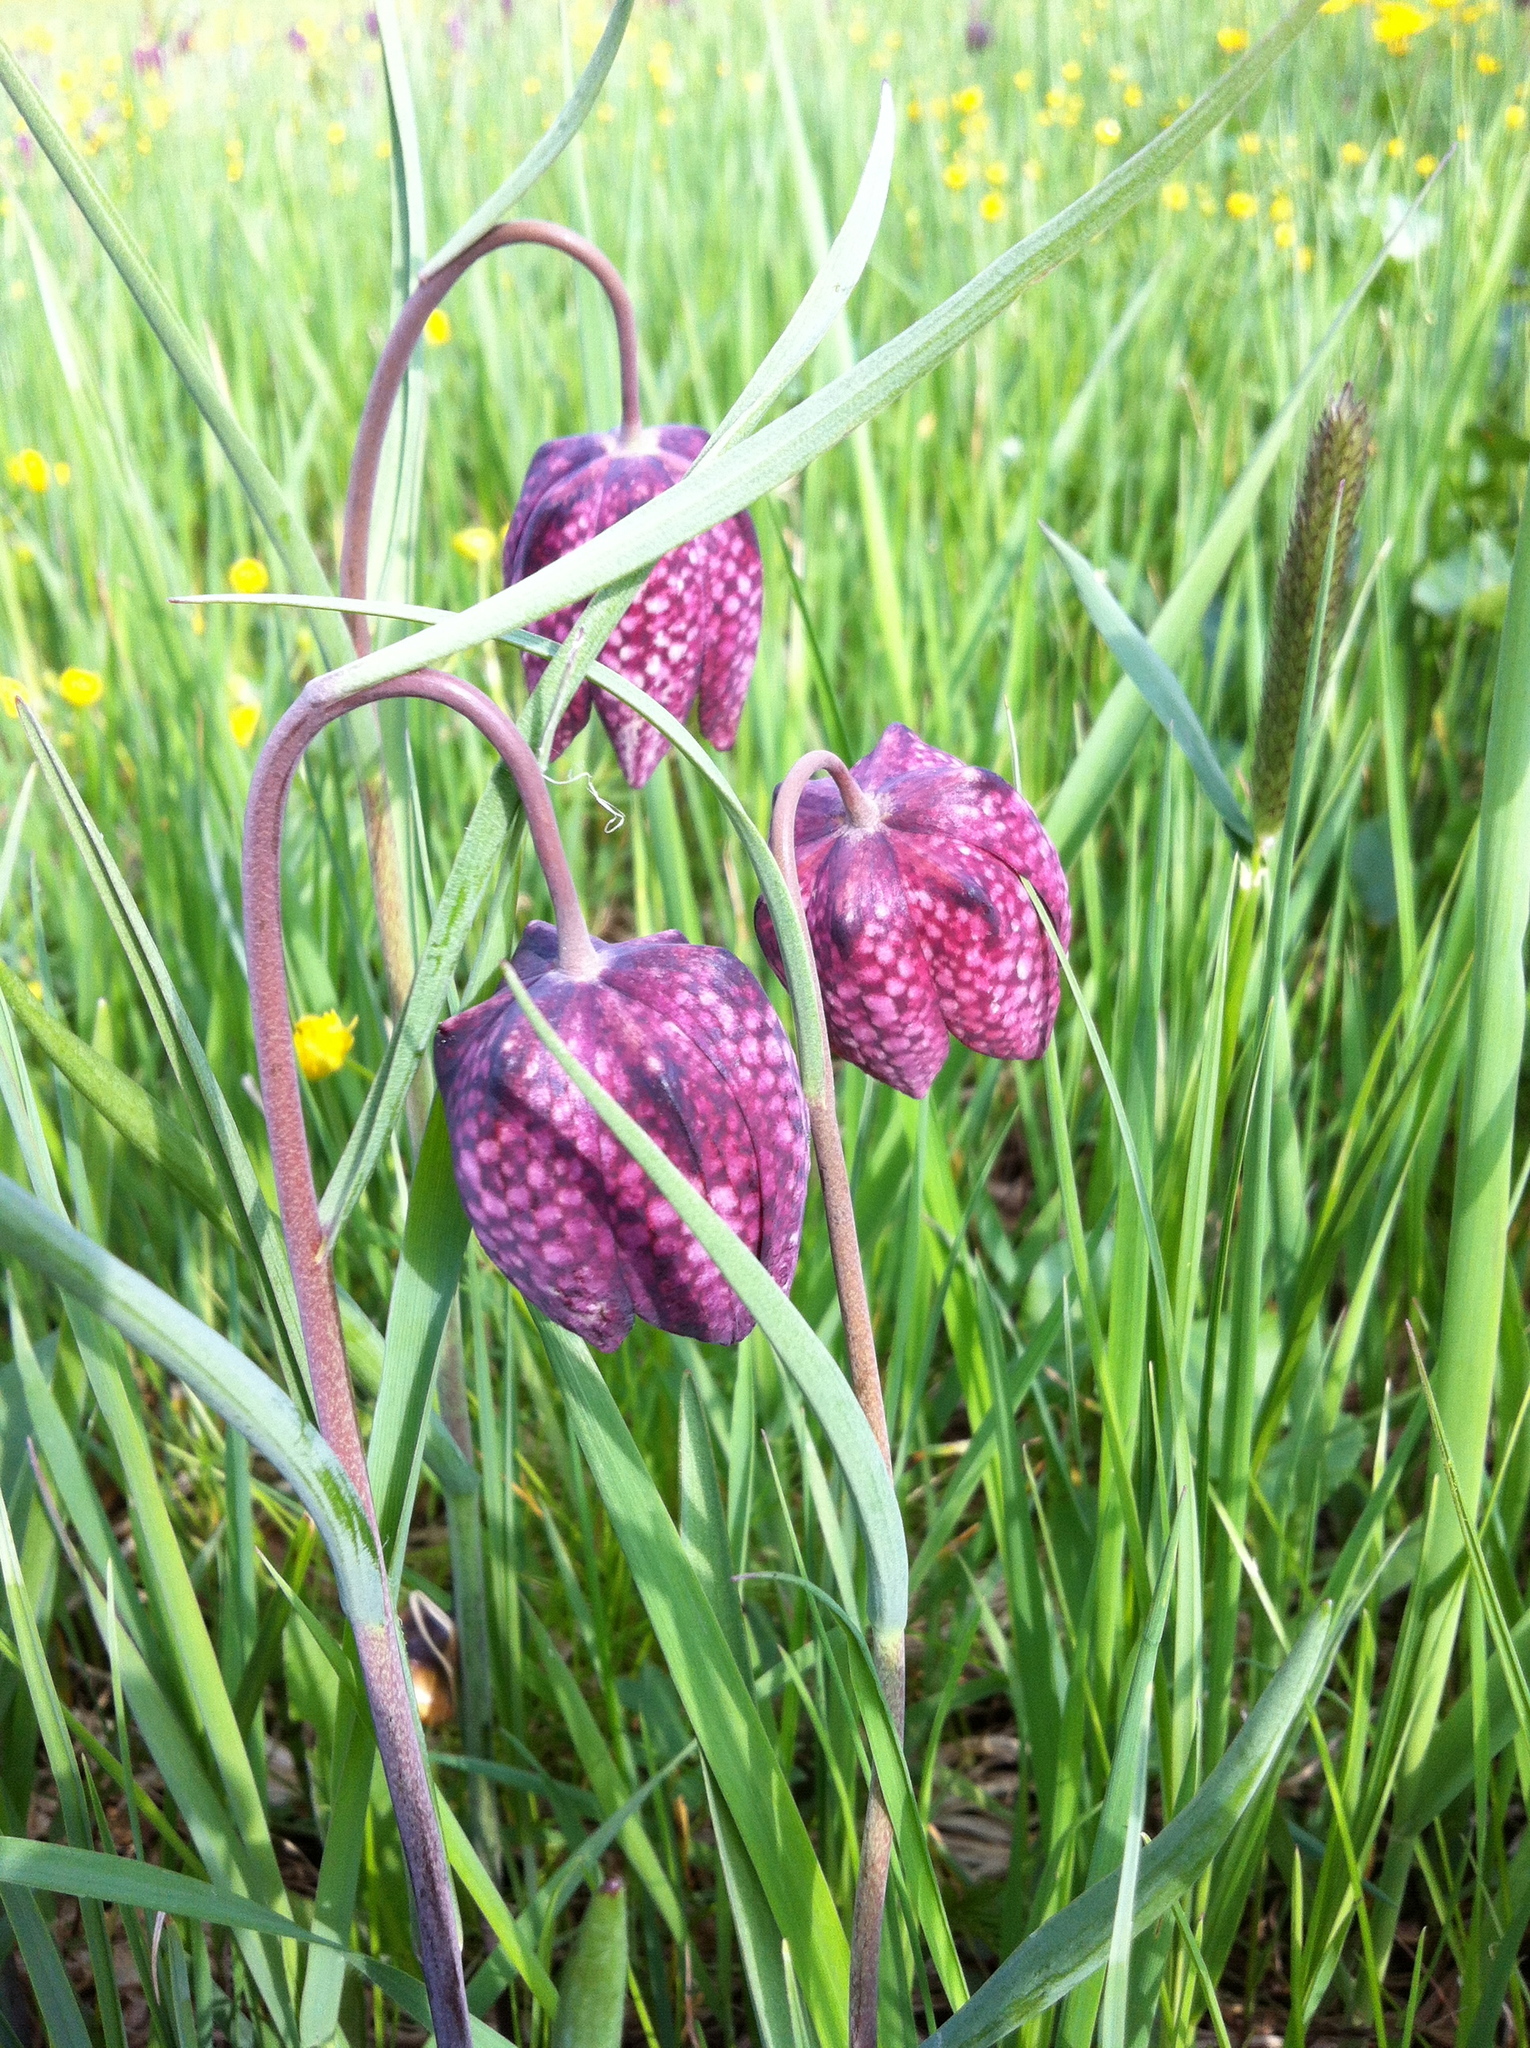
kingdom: Plantae
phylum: Tracheophyta
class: Liliopsida
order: Liliales
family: Liliaceae
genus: Fritillaria
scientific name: Fritillaria meleagris
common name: Fritillary
